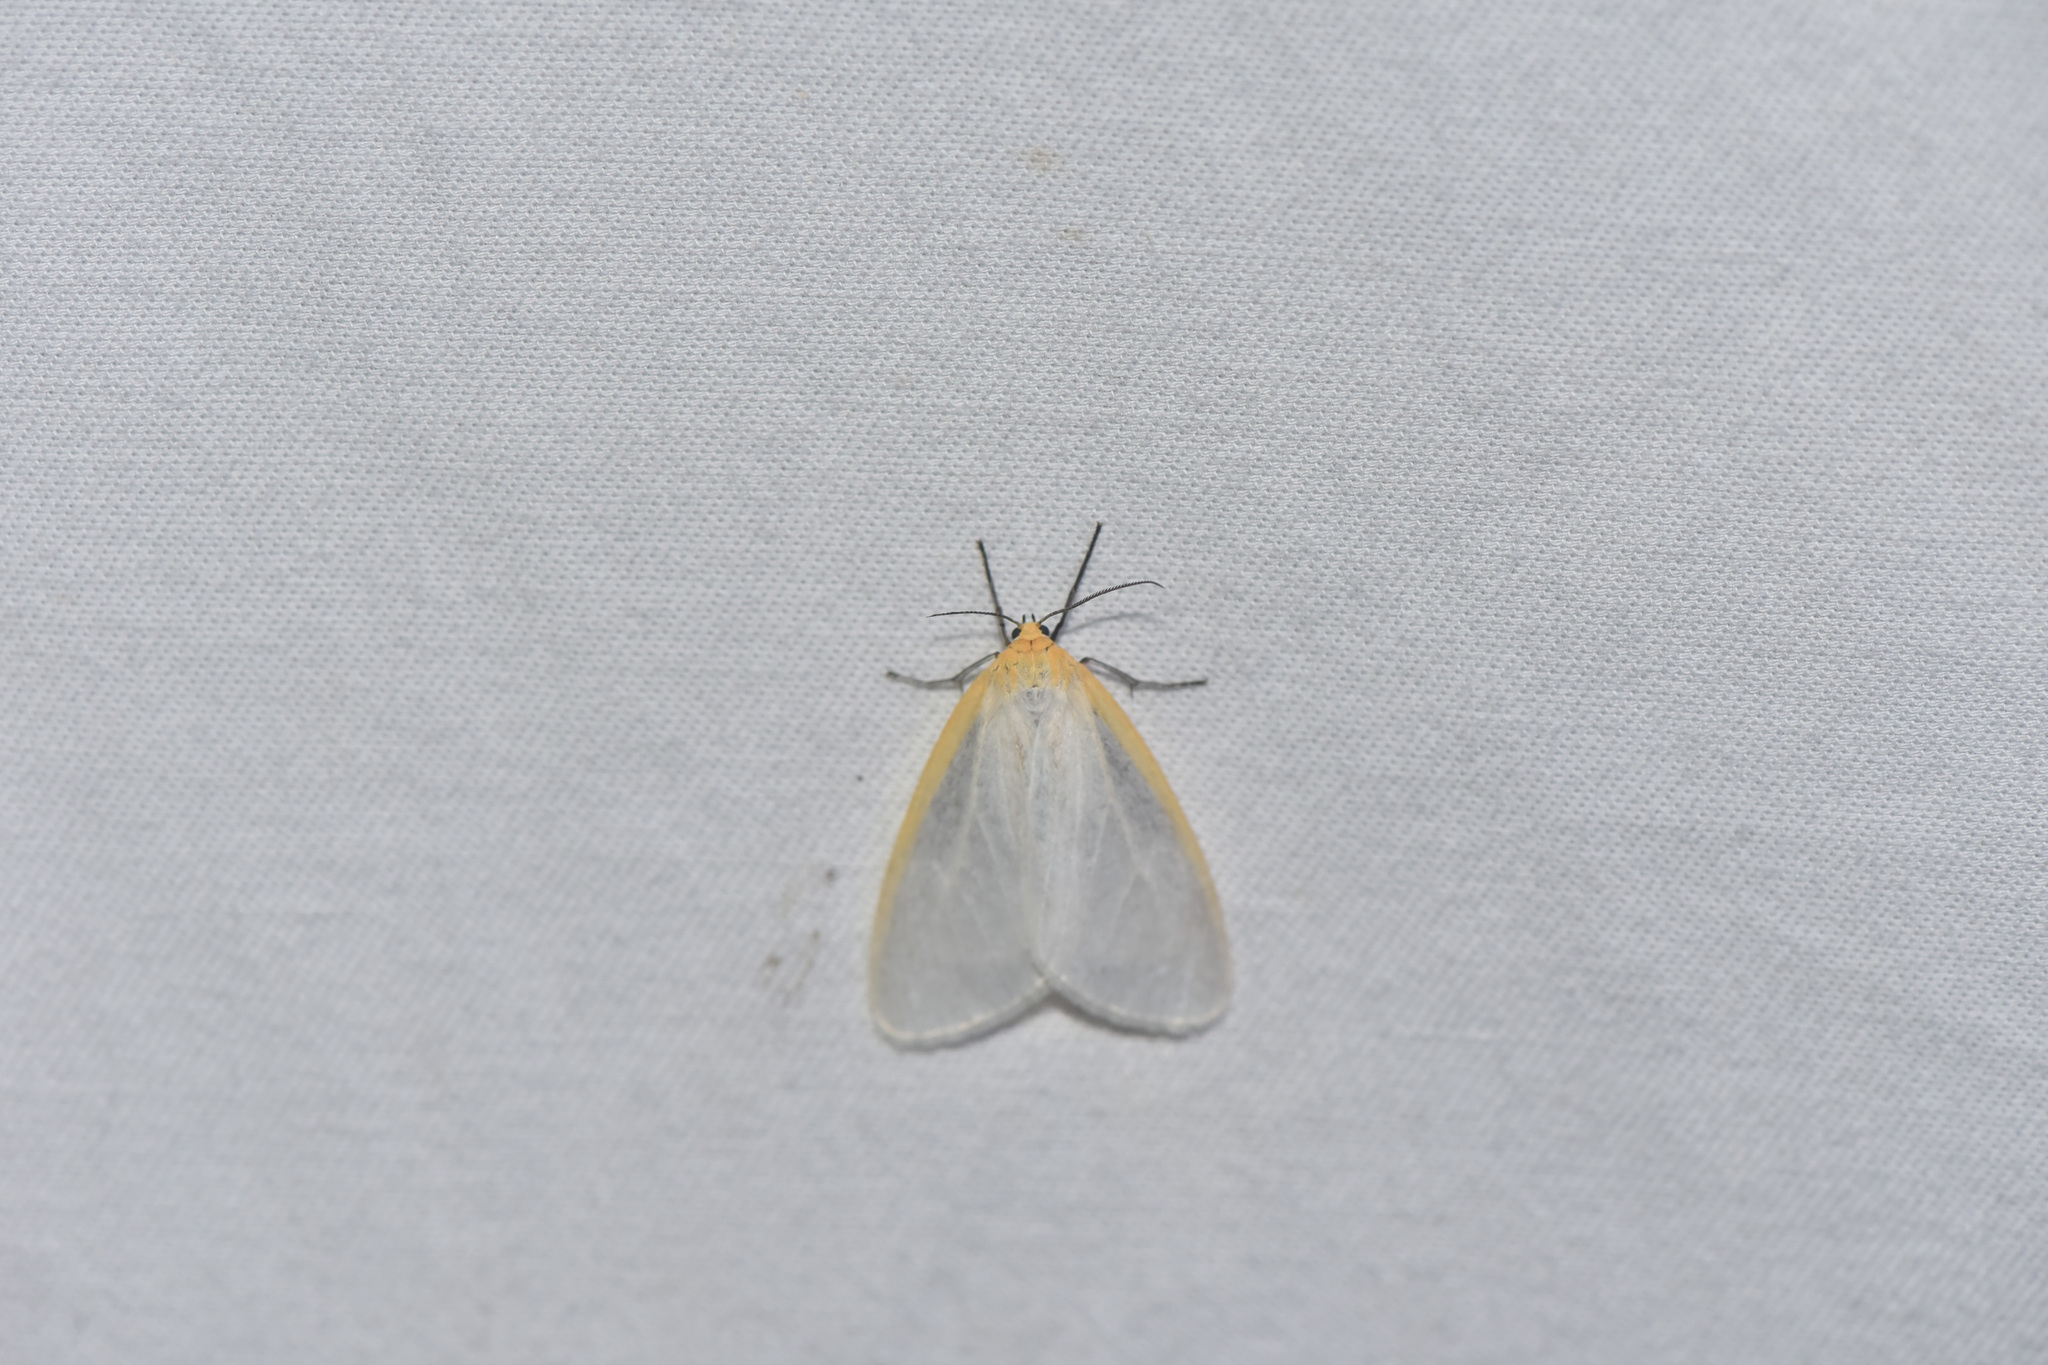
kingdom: Animalia
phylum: Arthropoda
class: Insecta
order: Lepidoptera
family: Erebidae
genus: Cycnia
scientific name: Cycnia tenera
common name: Delicate cycnia moth
